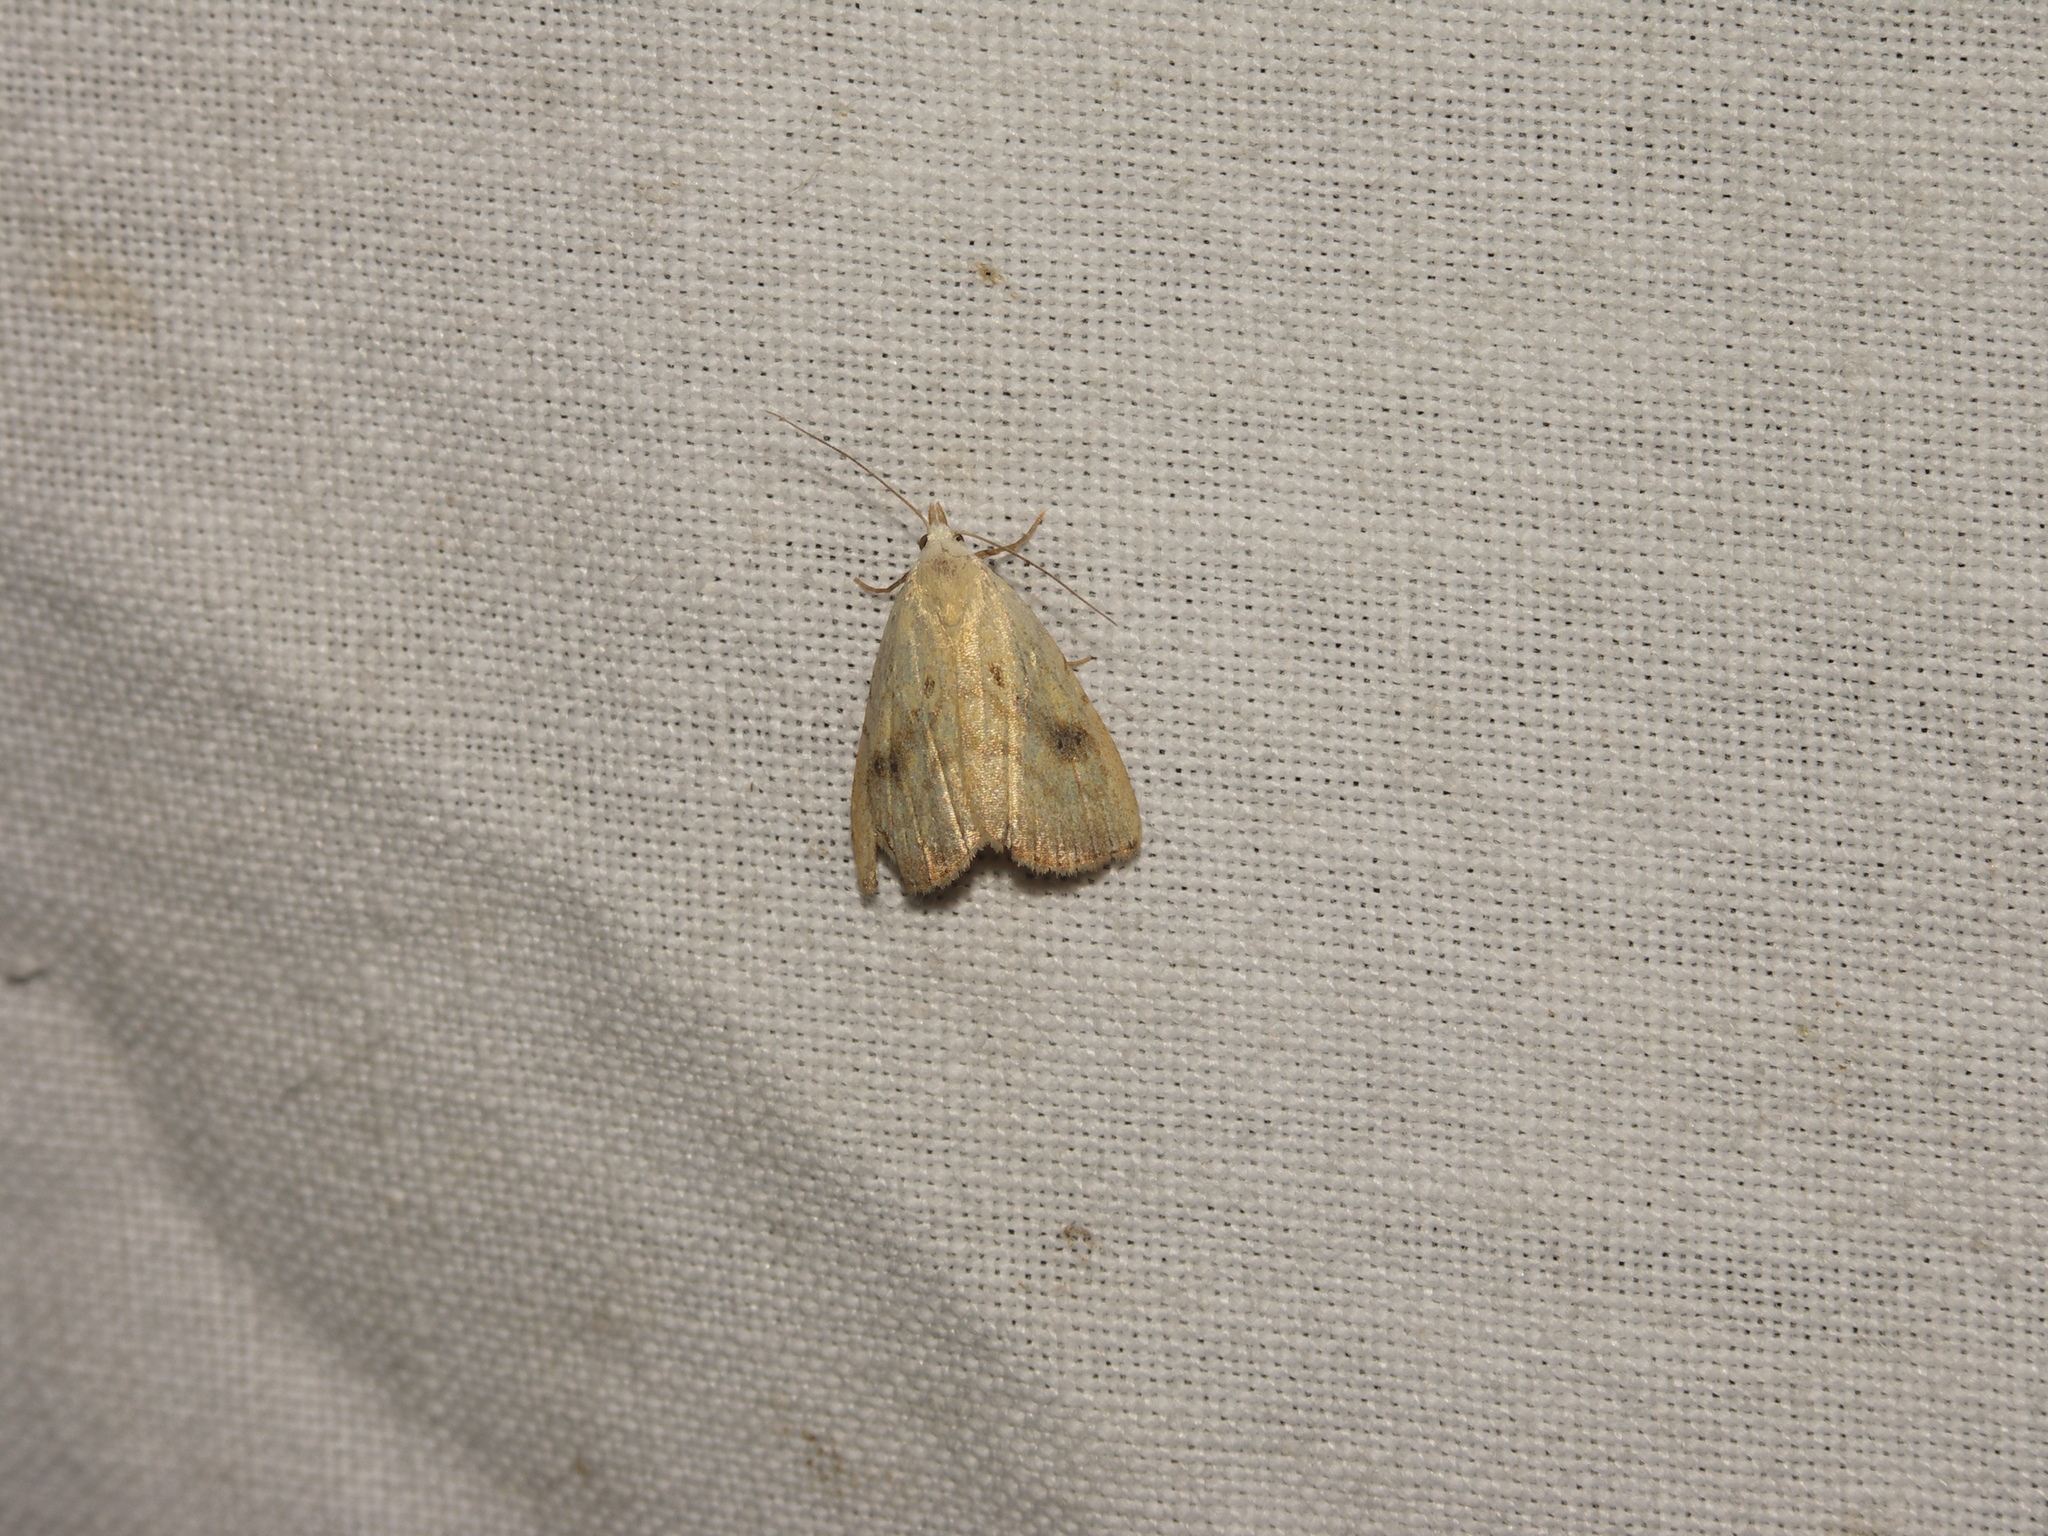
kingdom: Animalia
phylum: Arthropoda
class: Insecta
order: Lepidoptera
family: Erebidae
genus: Rivula
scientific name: Rivula sericealis
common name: Straw dot
